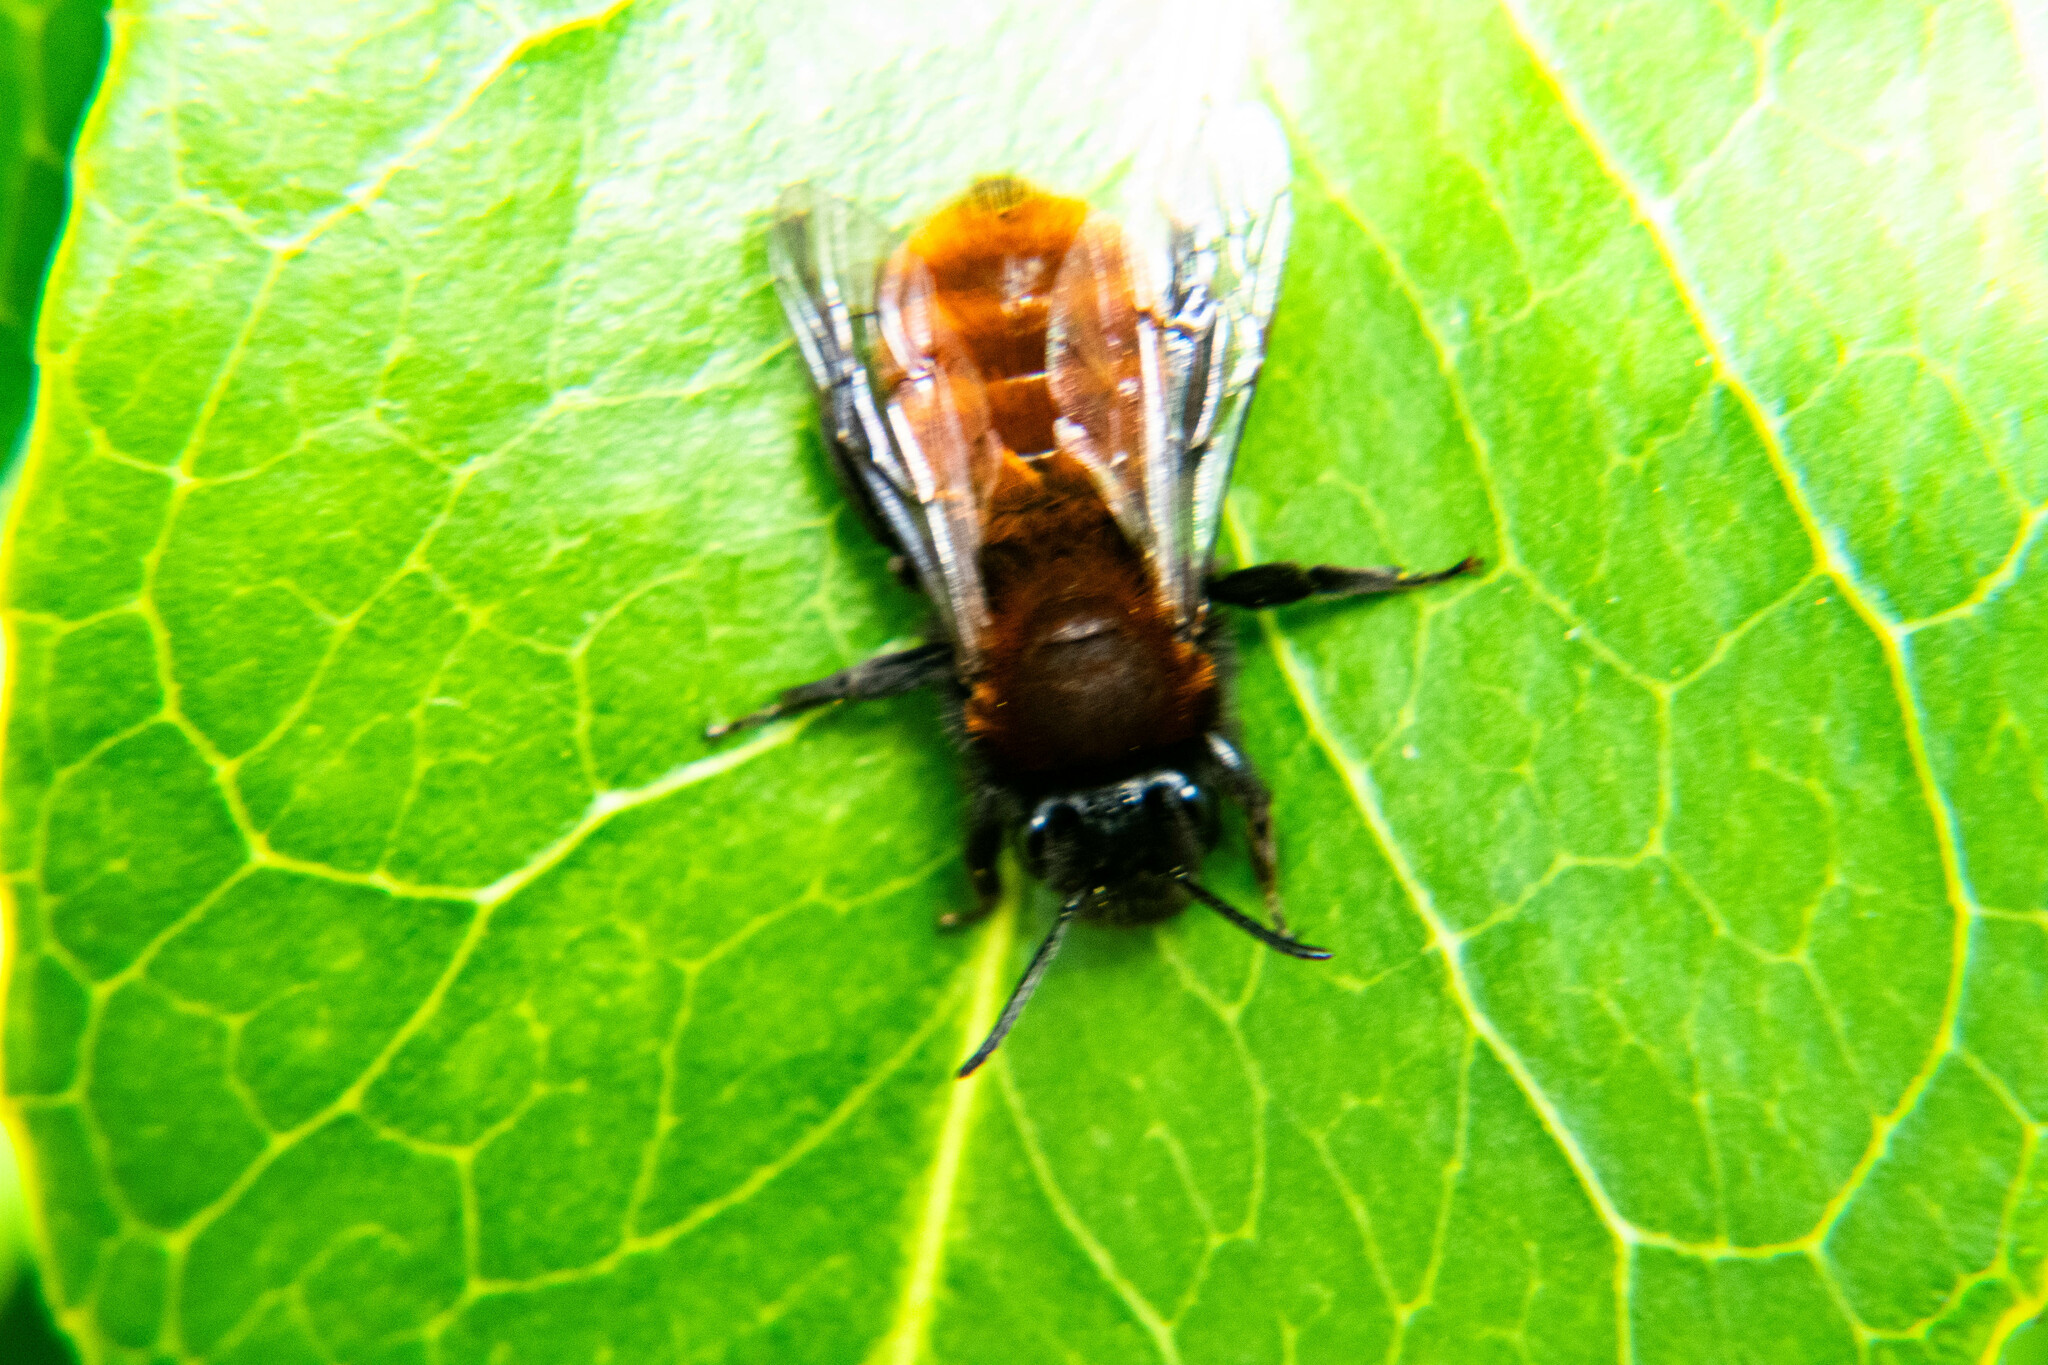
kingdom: Animalia
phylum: Arthropoda
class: Insecta
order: Hymenoptera
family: Andrenidae
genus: Andrena
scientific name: Andrena fulva
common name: Tawny mining bee
